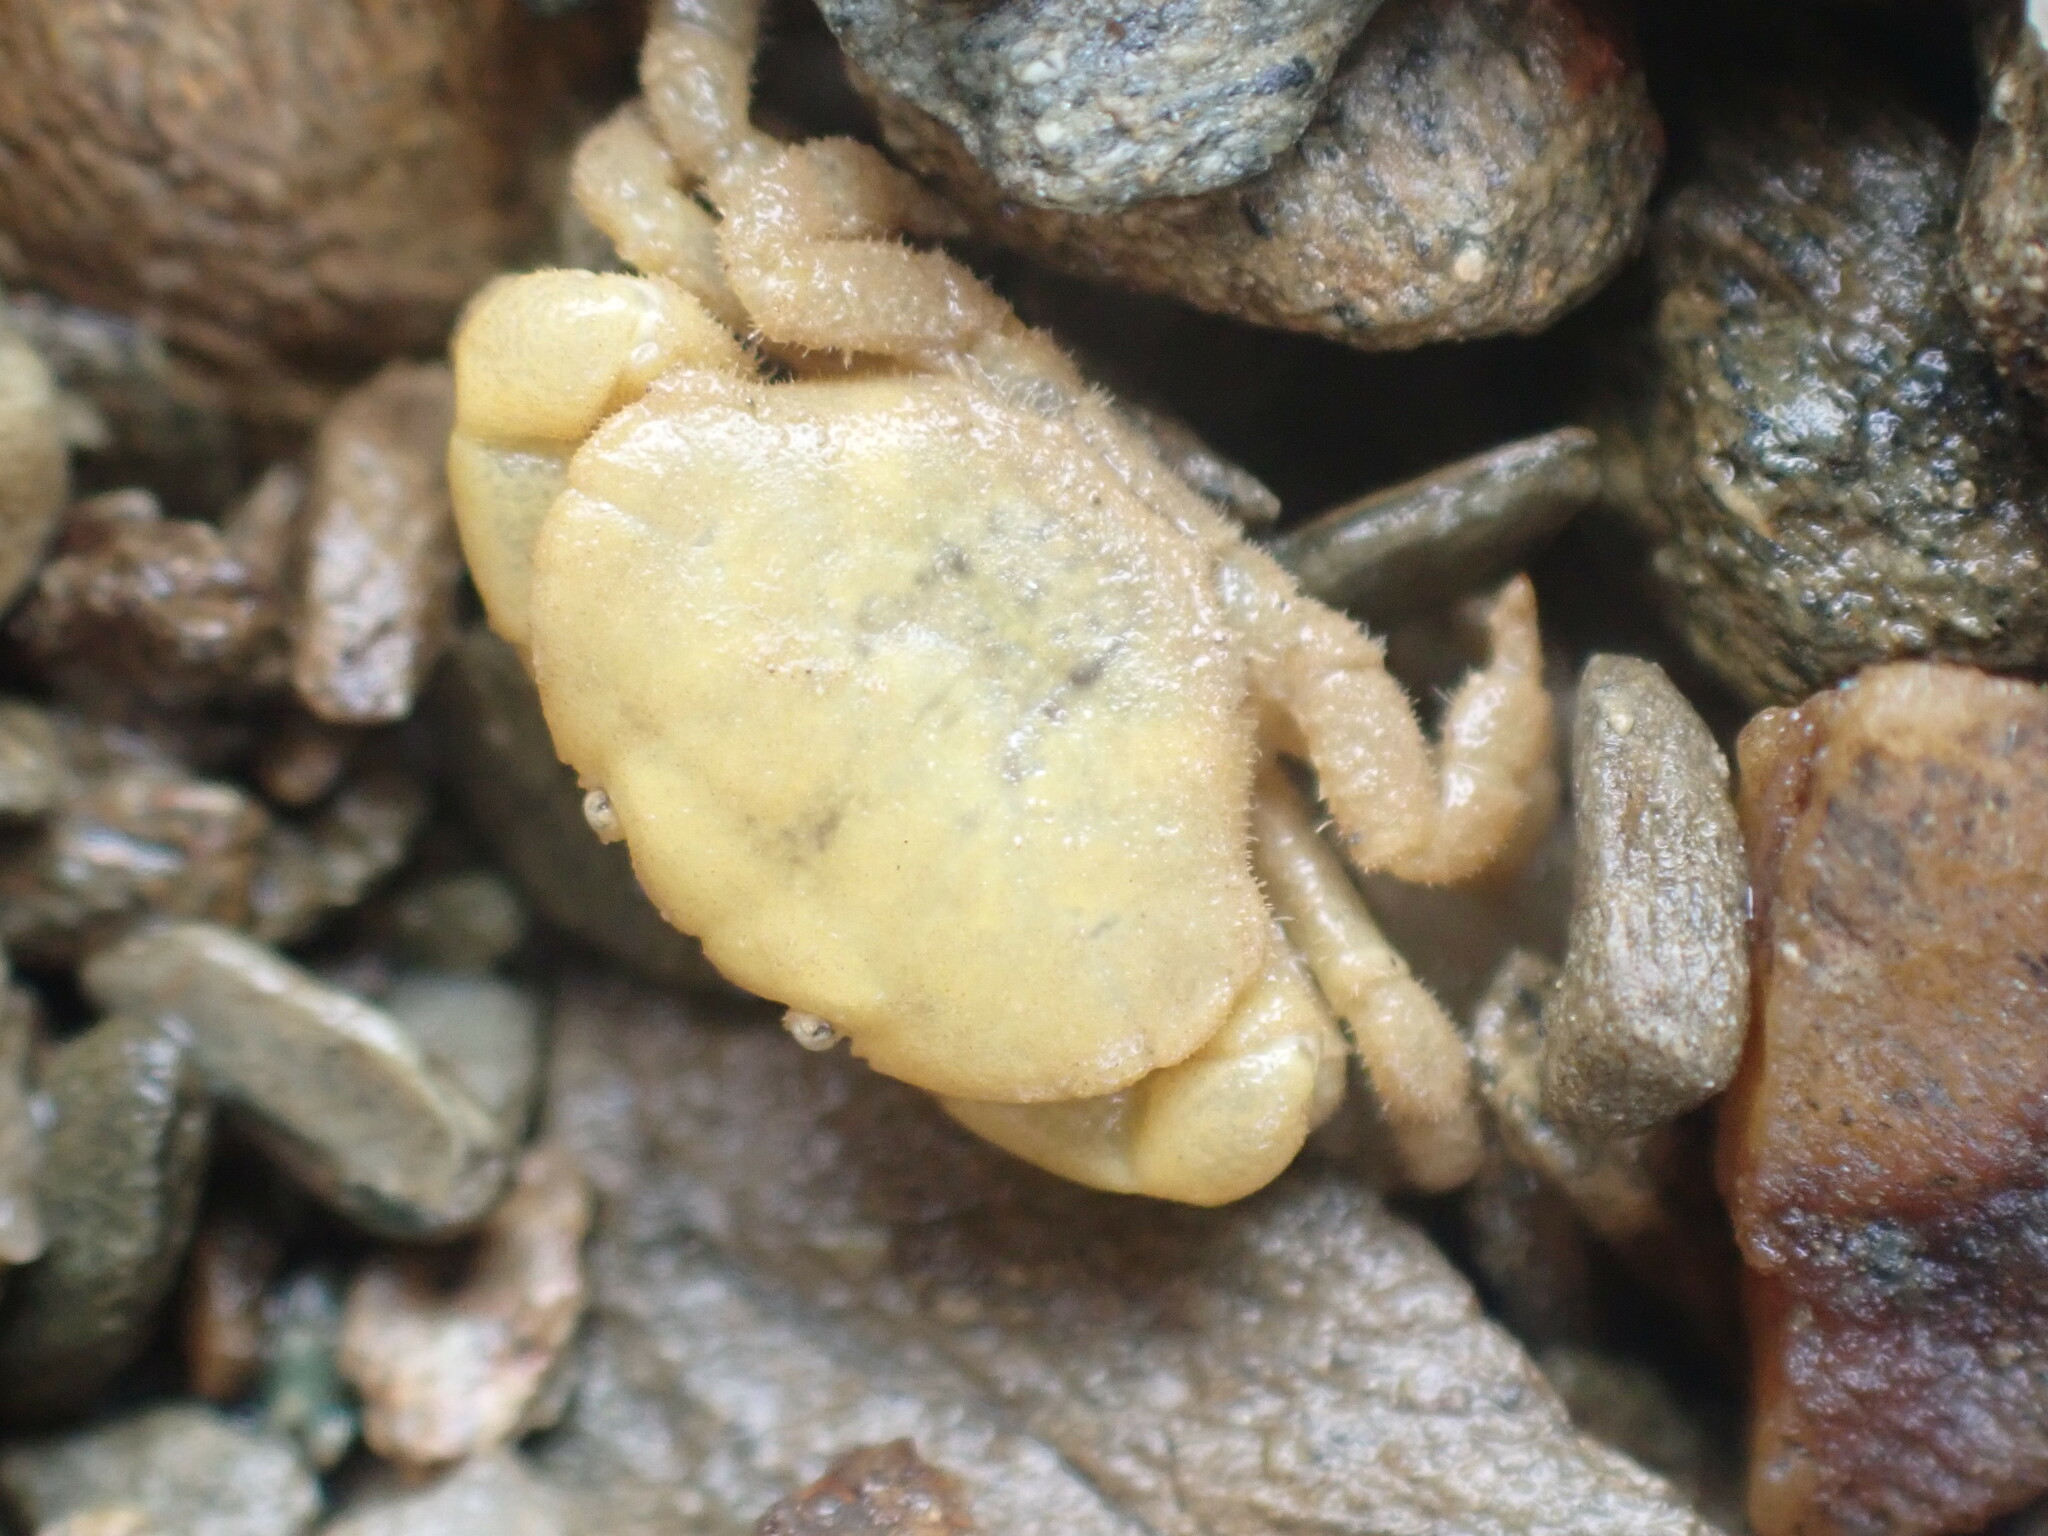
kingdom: Animalia
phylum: Arthropoda
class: Malacostraca
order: Decapoda
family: Heteroziidae
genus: Heterozius
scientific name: Heterozius rotundifrons
